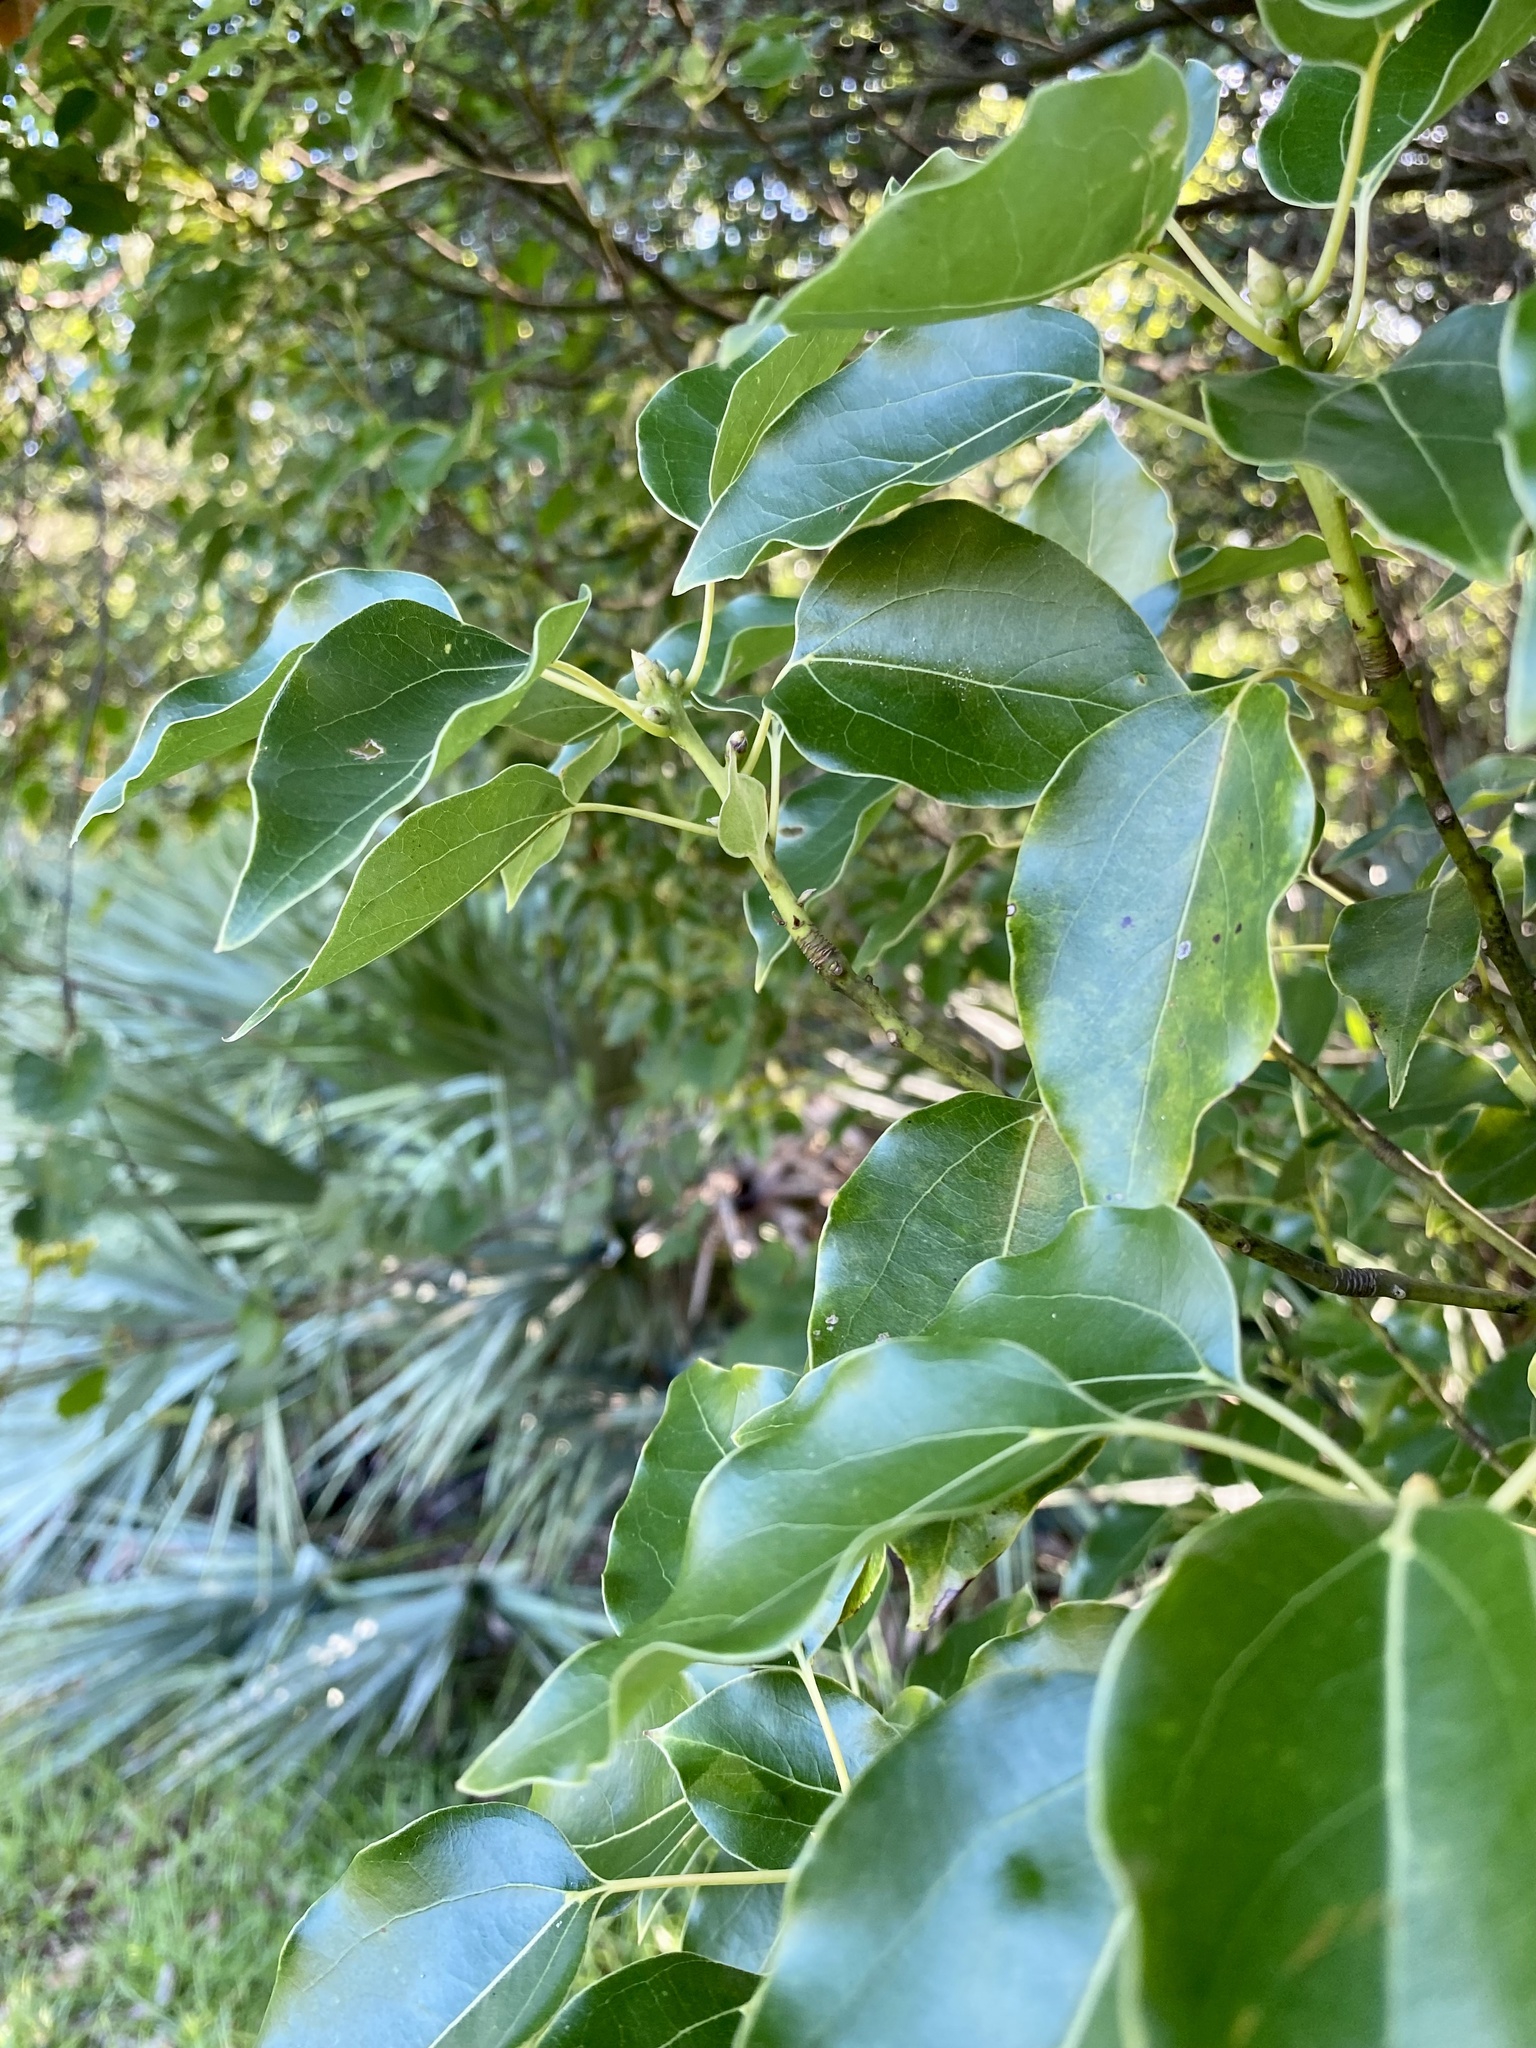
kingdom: Plantae
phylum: Tracheophyta
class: Magnoliopsida
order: Laurales
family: Lauraceae
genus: Cinnamomum
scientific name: Cinnamomum camphora
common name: Camphortree
